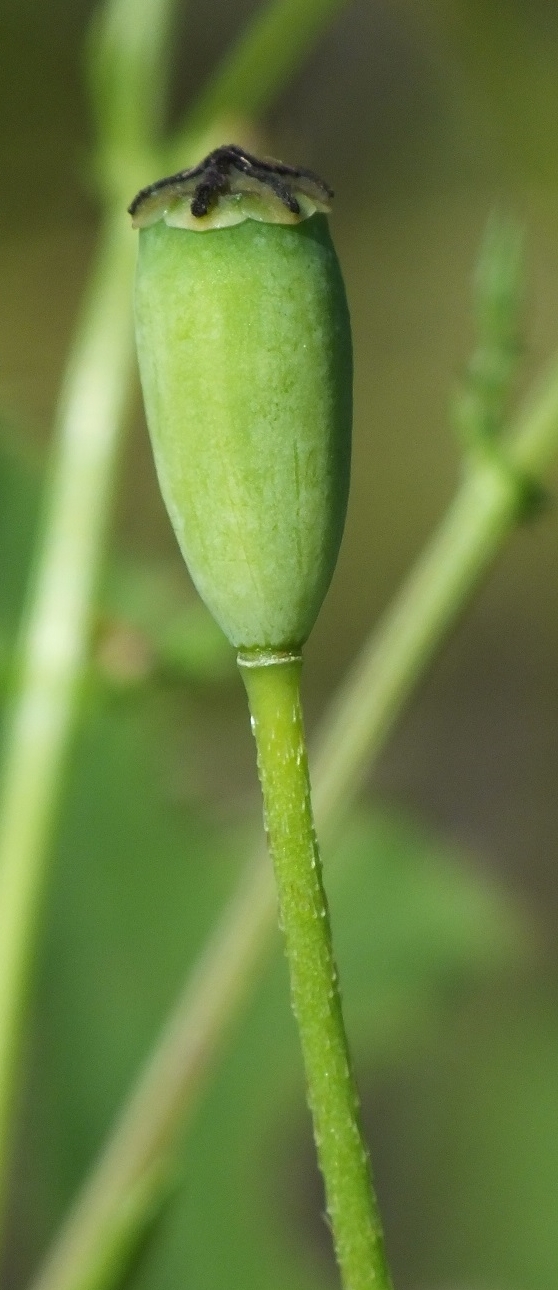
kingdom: Plantae
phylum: Tracheophyta
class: Magnoliopsida
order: Ranunculales
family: Papaveraceae
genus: Papaver
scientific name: Papaver dubium
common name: Long-headed poppy
